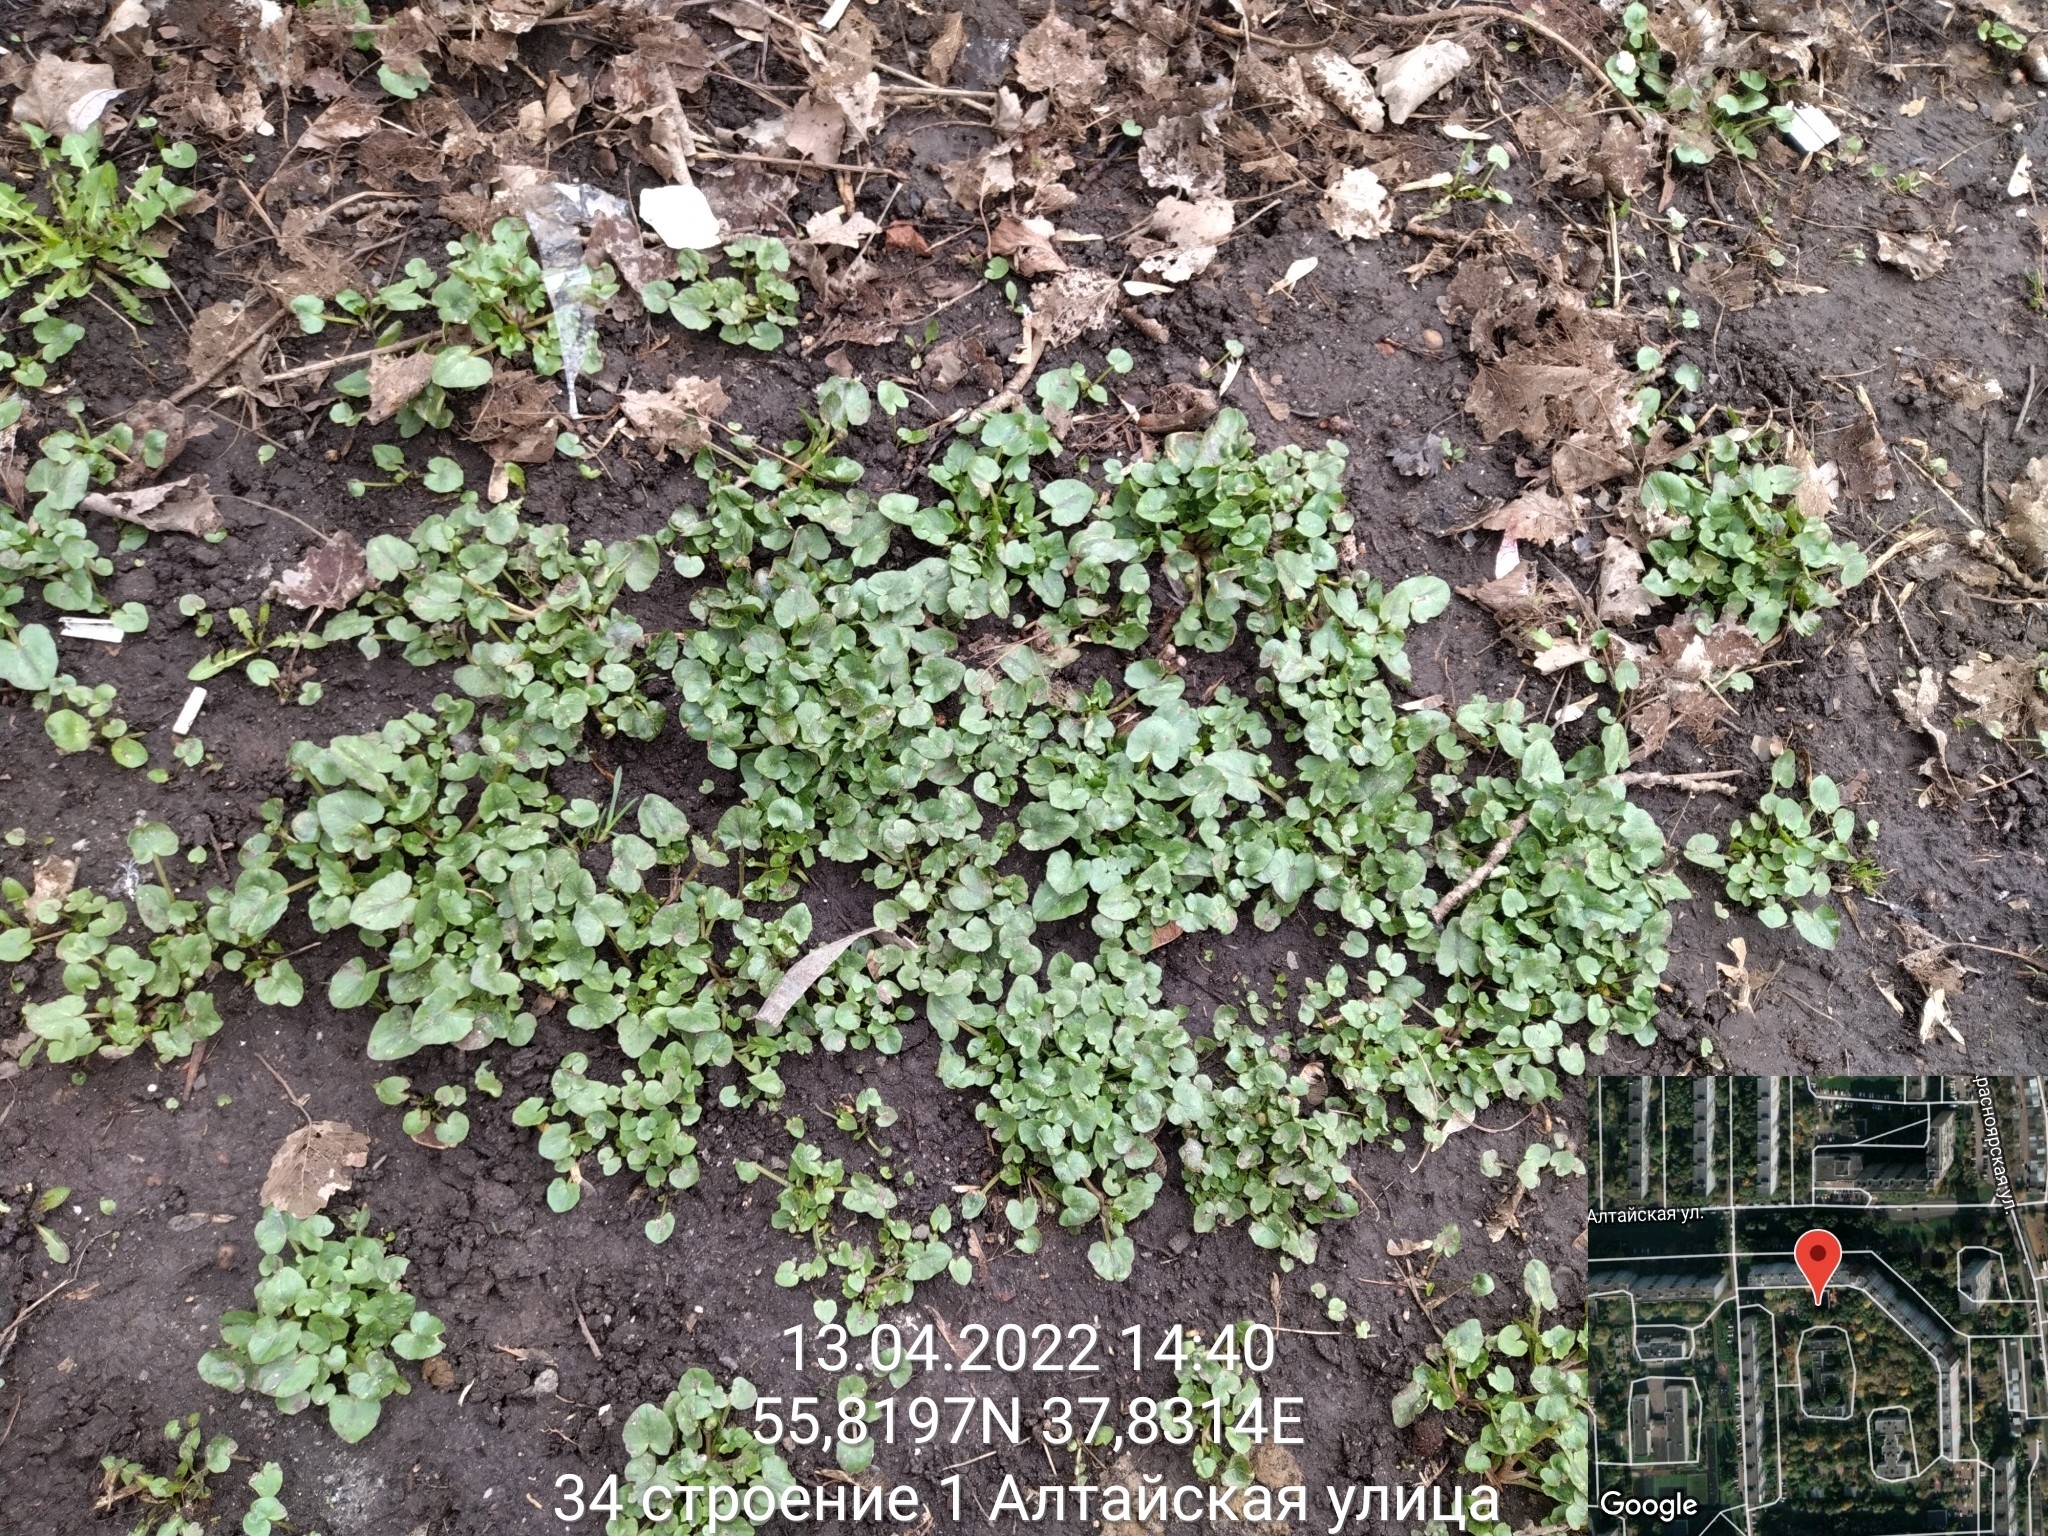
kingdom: Plantae
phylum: Tracheophyta
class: Magnoliopsida
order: Ranunculales
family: Ranunculaceae
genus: Ficaria
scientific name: Ficaria verna
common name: Lesser celandine
